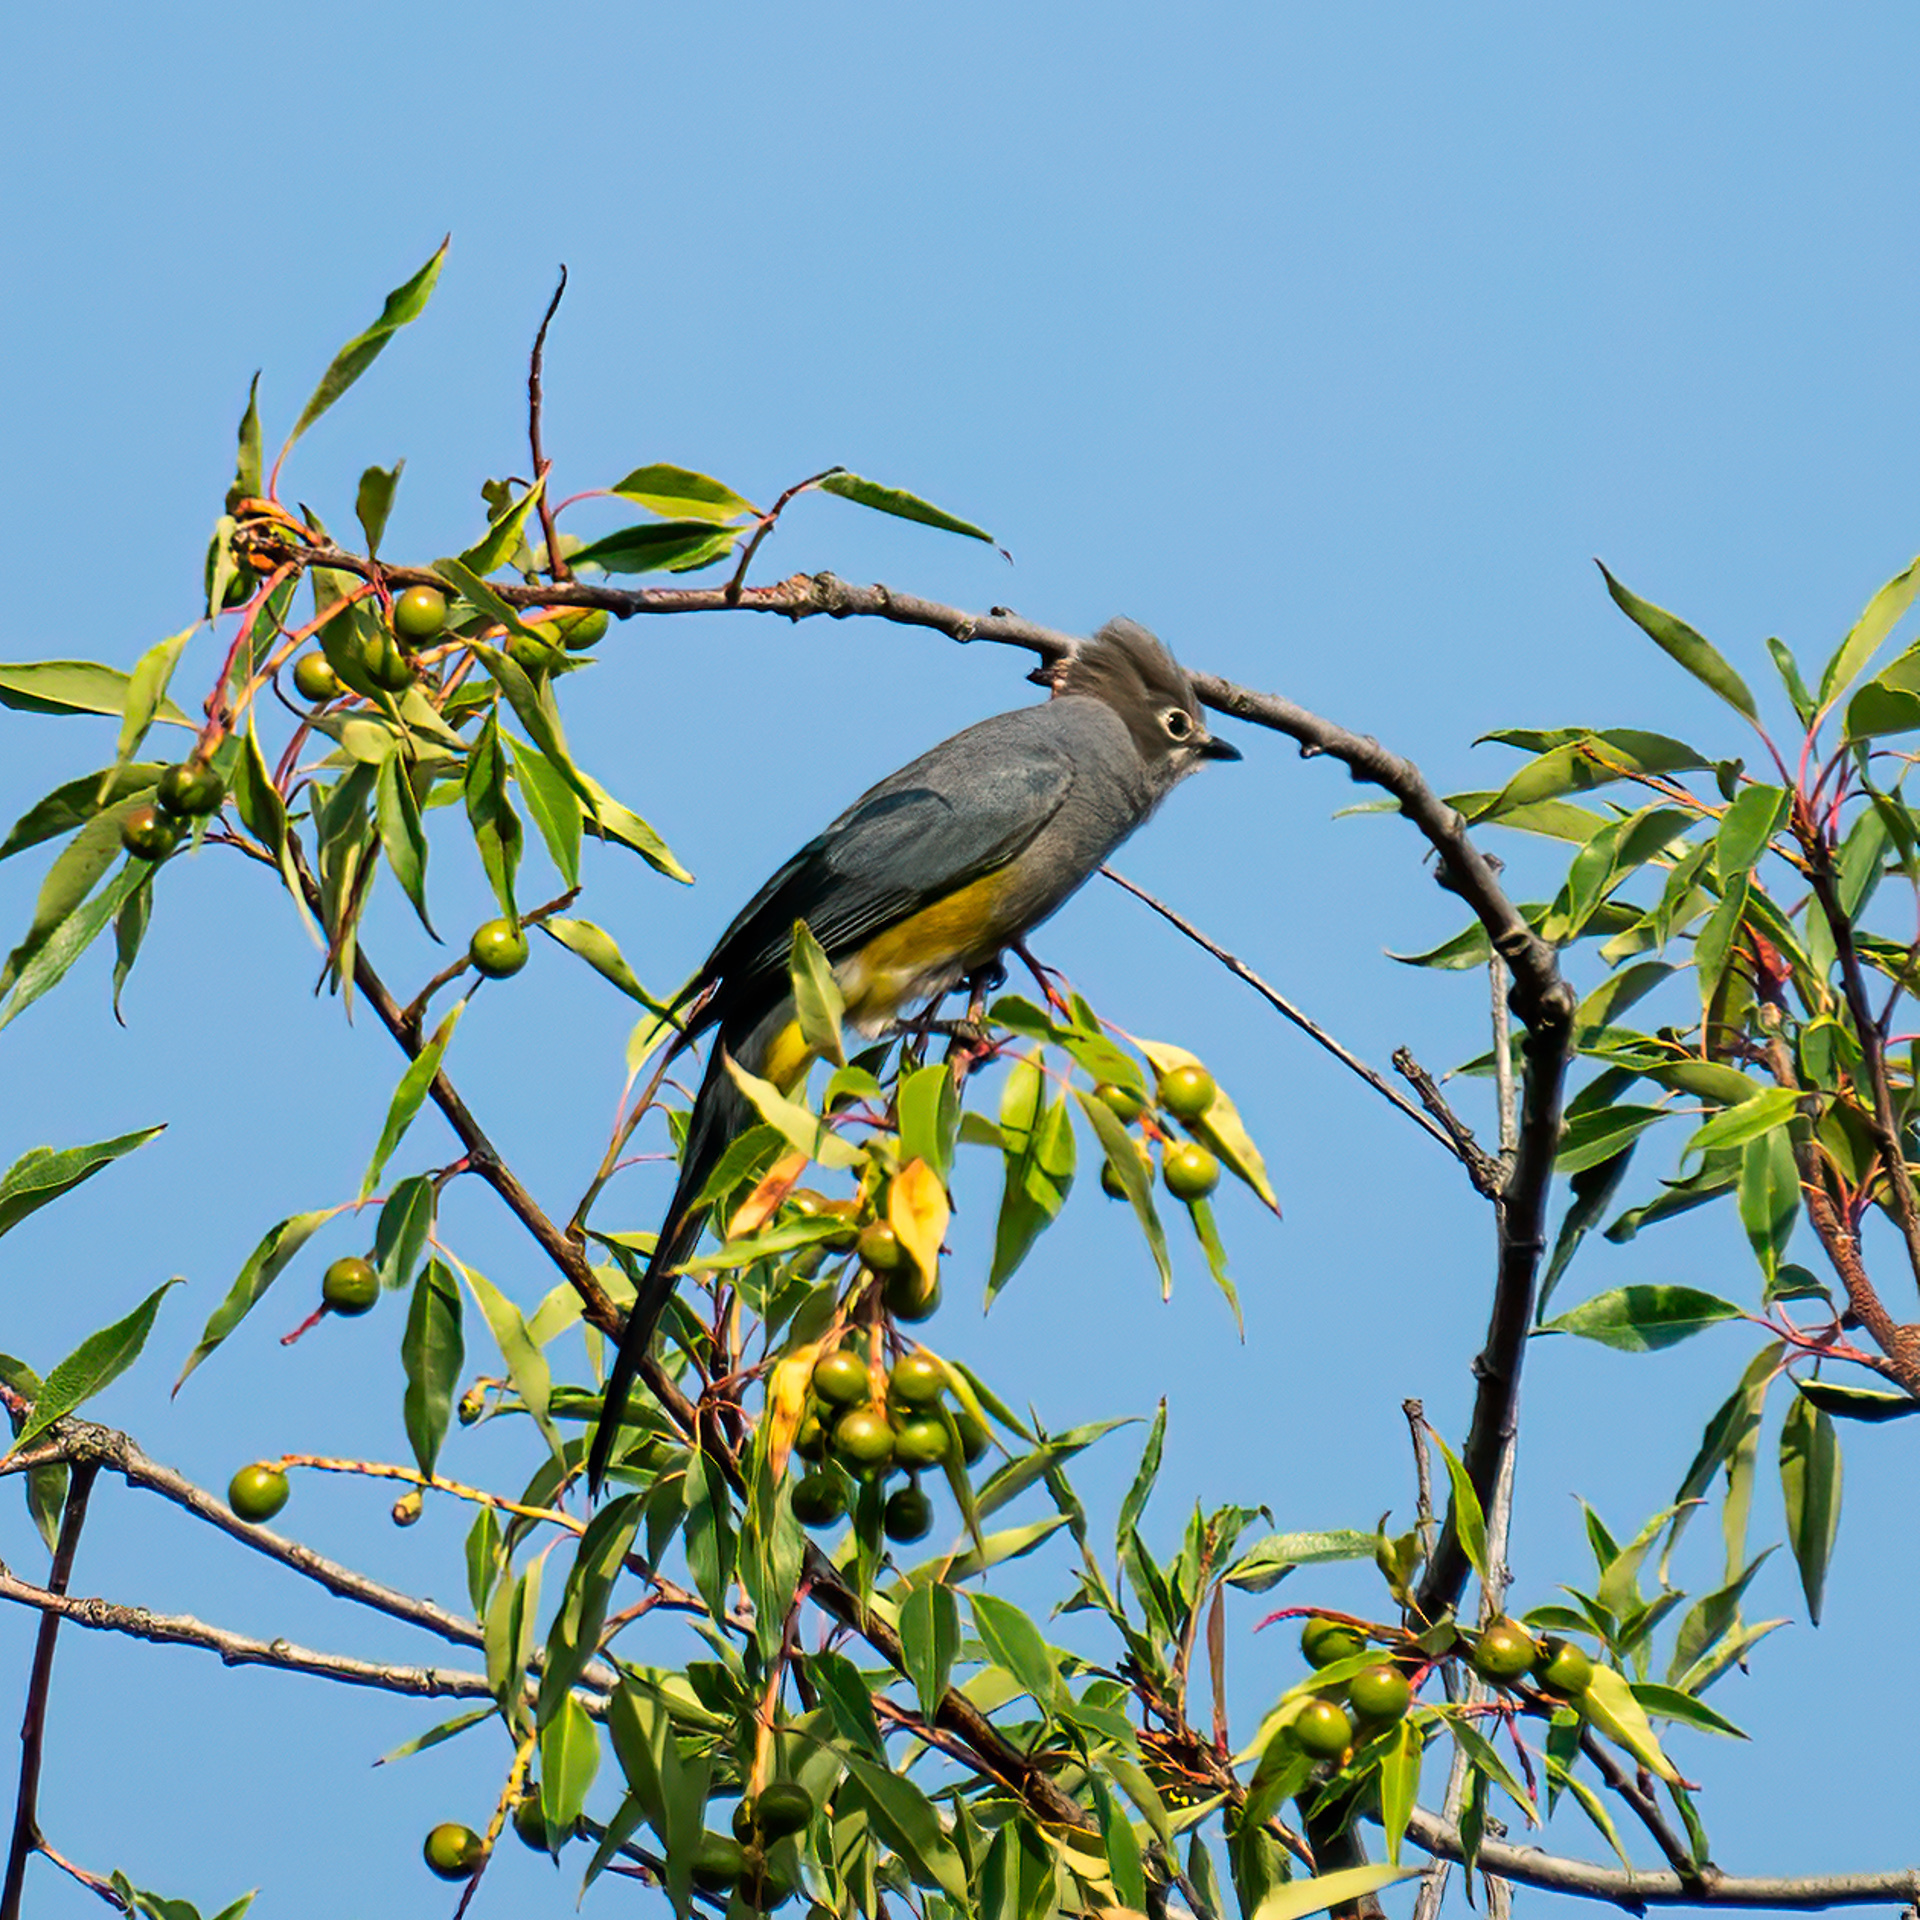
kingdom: Animalia
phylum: Chordata
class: Aves
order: Passeriformes
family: Ptilogonatidae
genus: Ptilogonys
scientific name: Ptilogonys cinereus
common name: Gray silky-flycatcher
